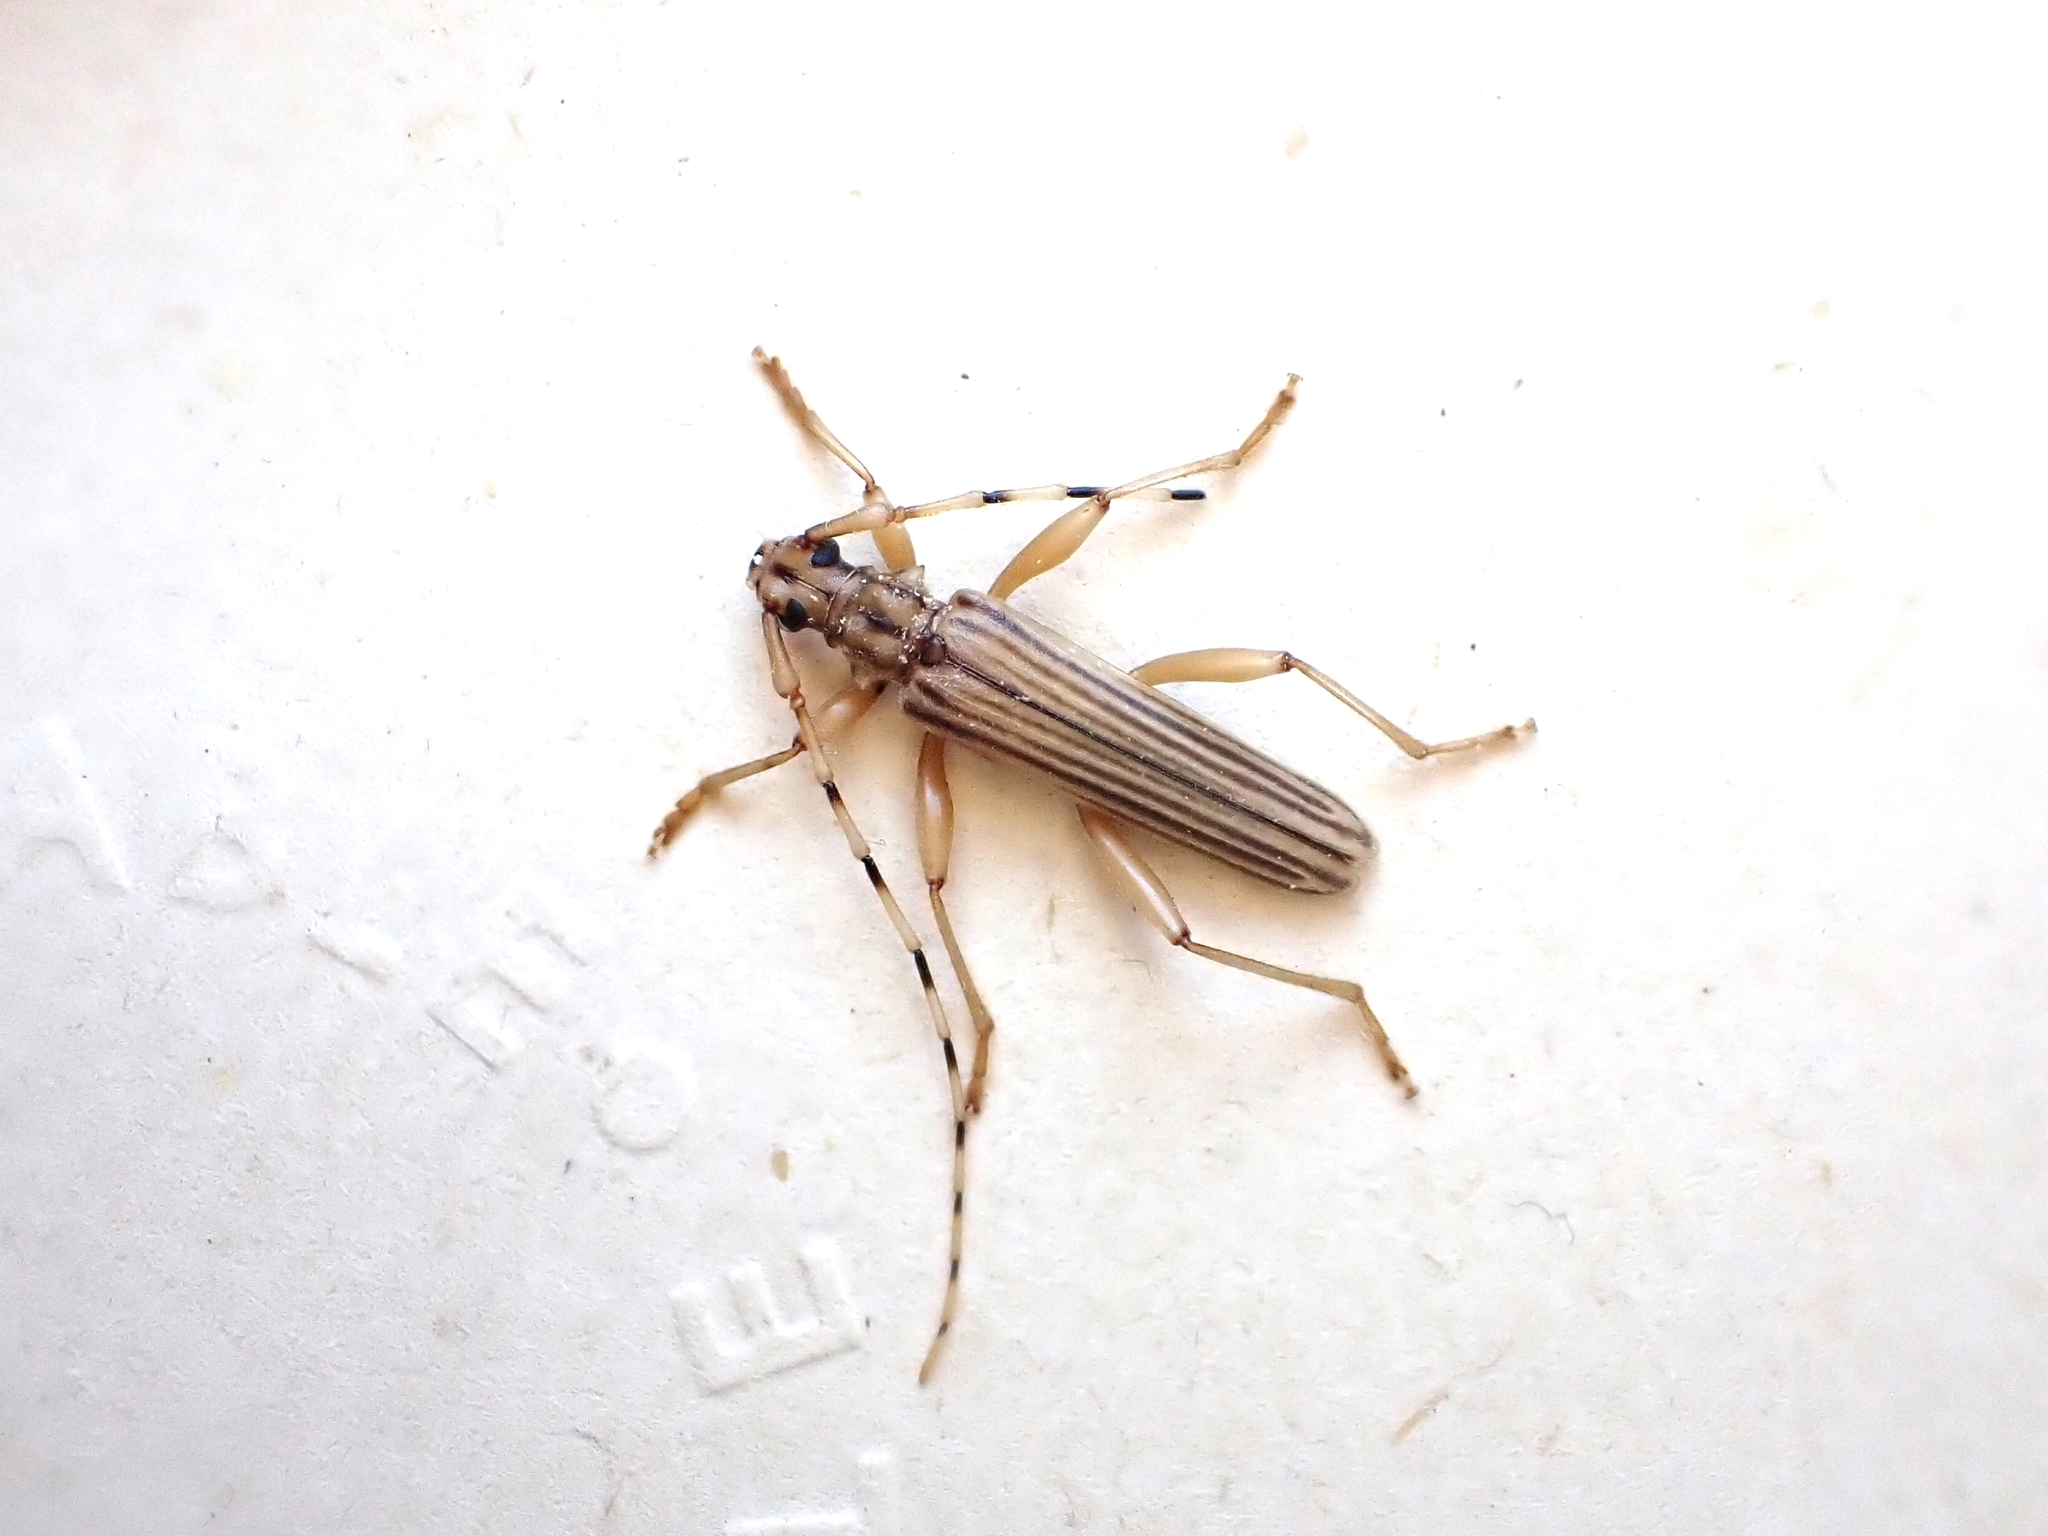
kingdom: Animalia
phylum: Arthropoda
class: Insecta
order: Coleoptera
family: Cerambycidae
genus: Leptachrous
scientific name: Leptachrous strigipennis
